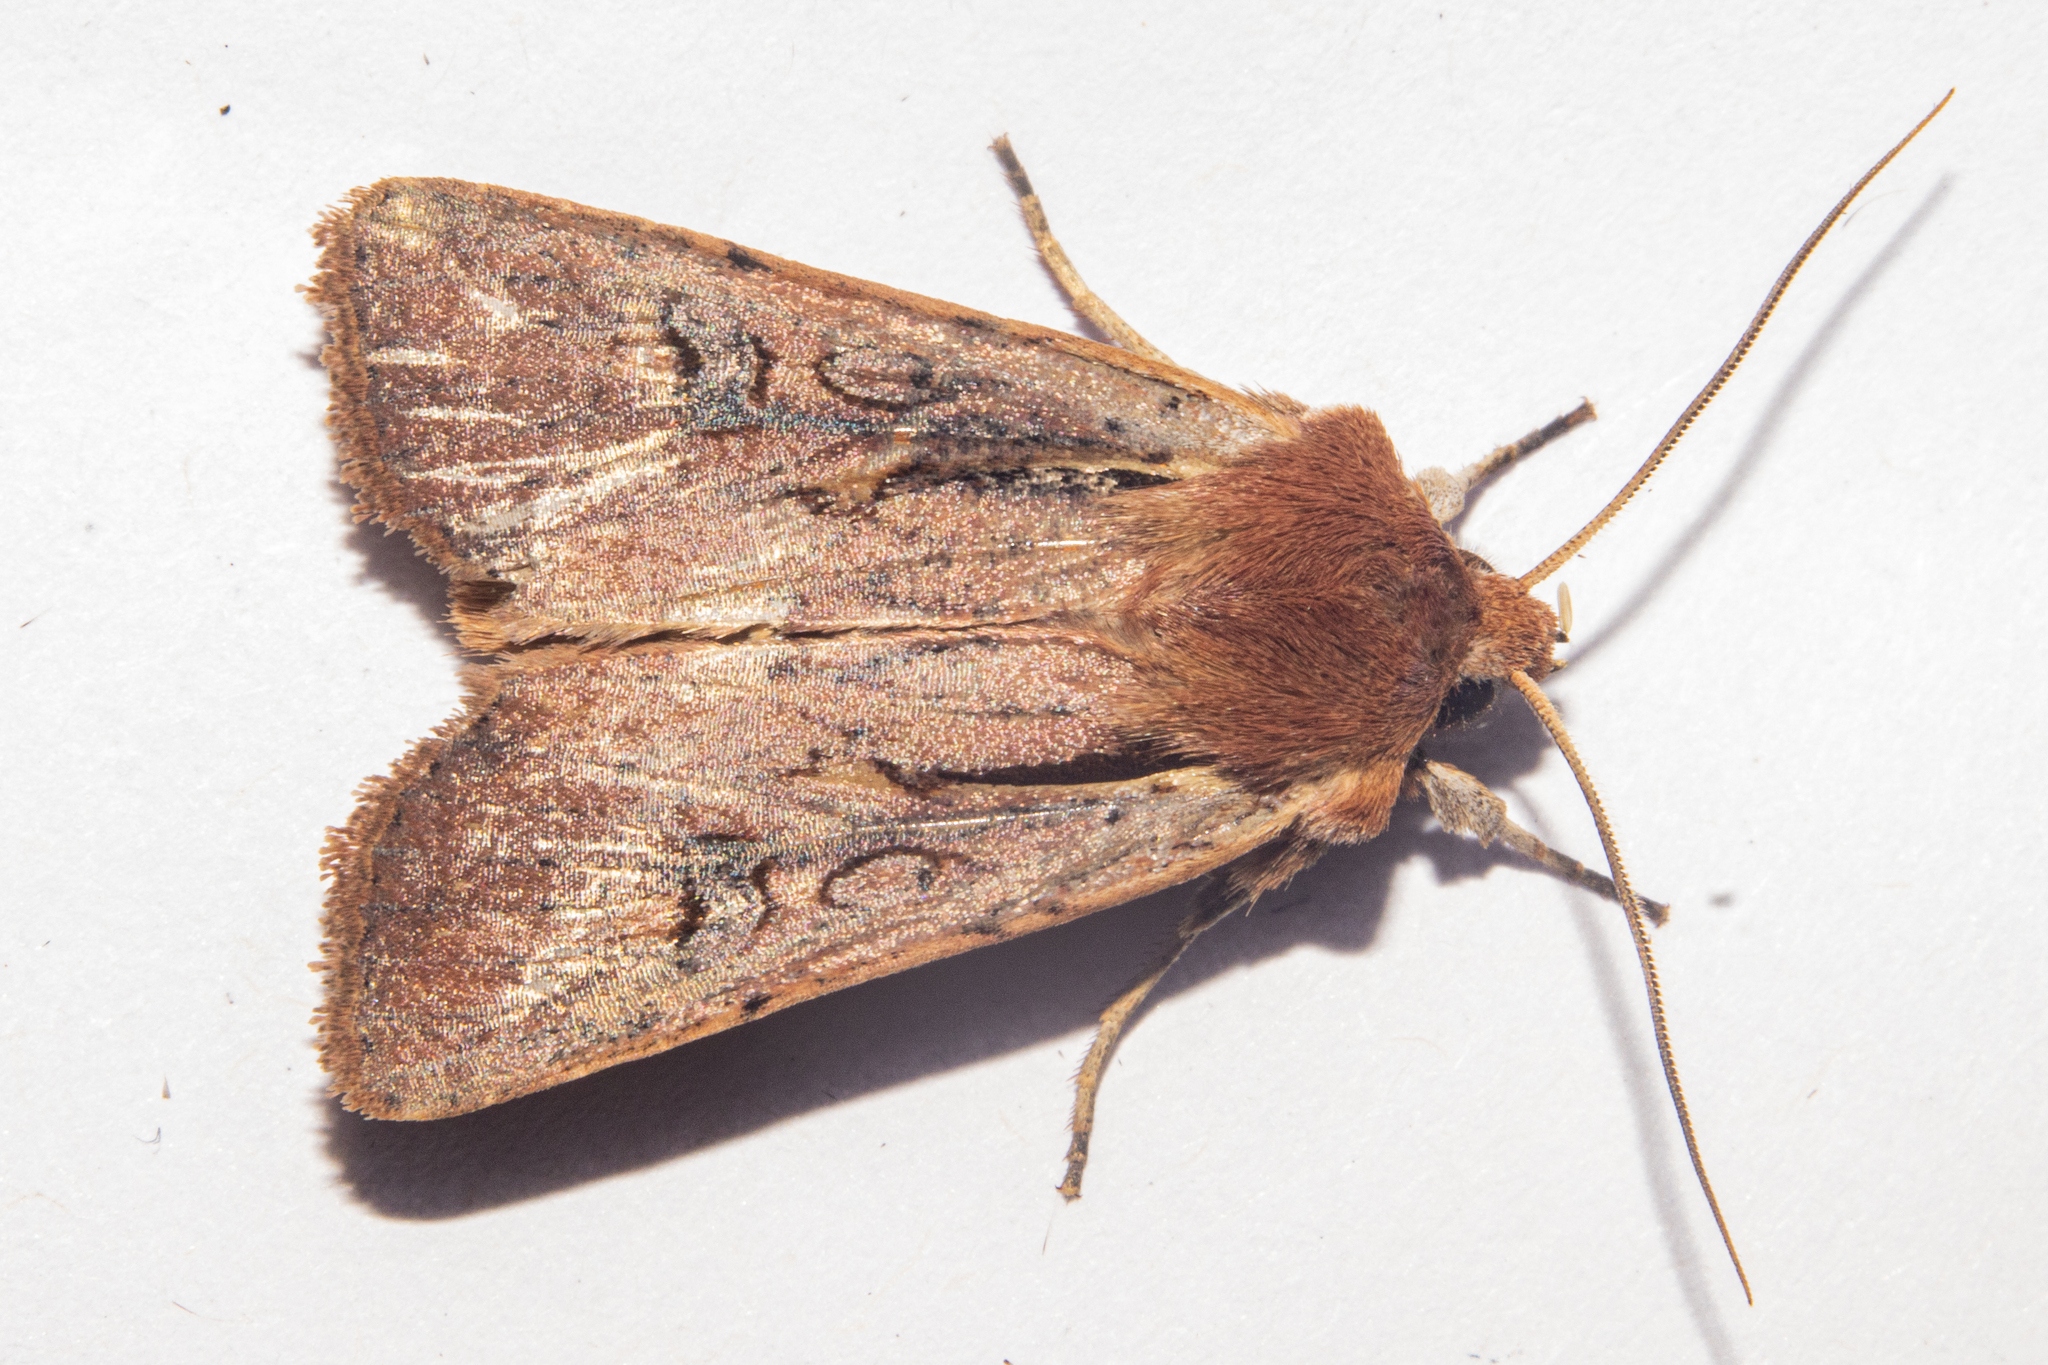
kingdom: Animalia
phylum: Arthropoda
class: Insecta
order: Lepidoptera
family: Noctuidae
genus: Ichneutica
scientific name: Ichneutica atristriga
